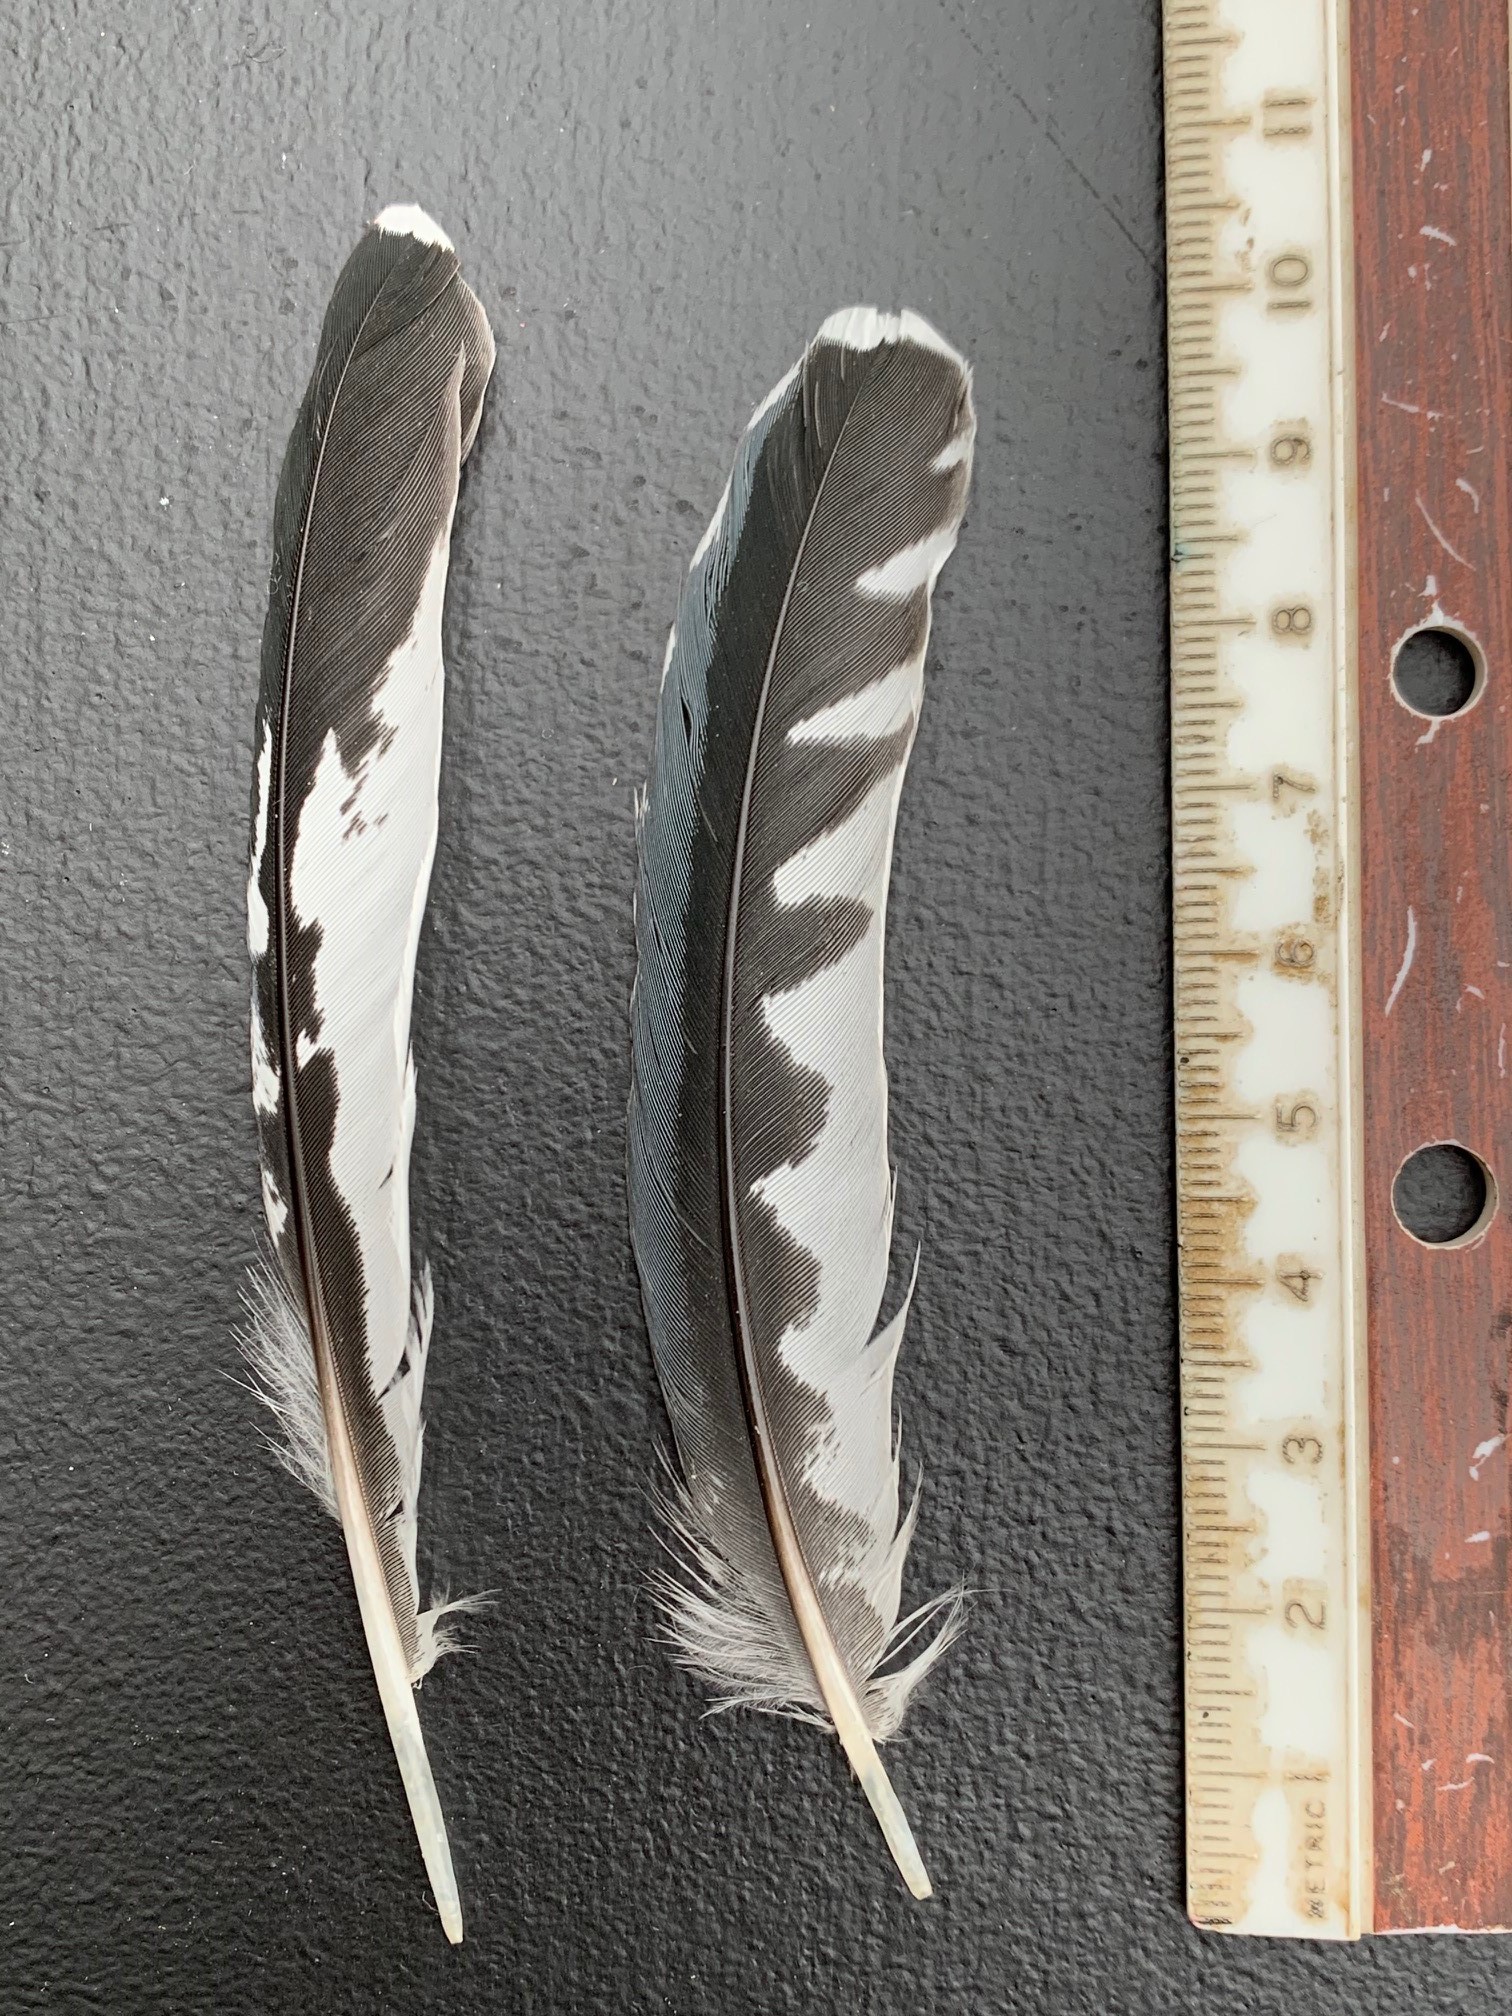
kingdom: Animalia
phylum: Chordata
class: Aves
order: Coraciiformes
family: Alcedinidae
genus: Megaceryle
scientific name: Megaceryle alcyon
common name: Belted kingfisher
